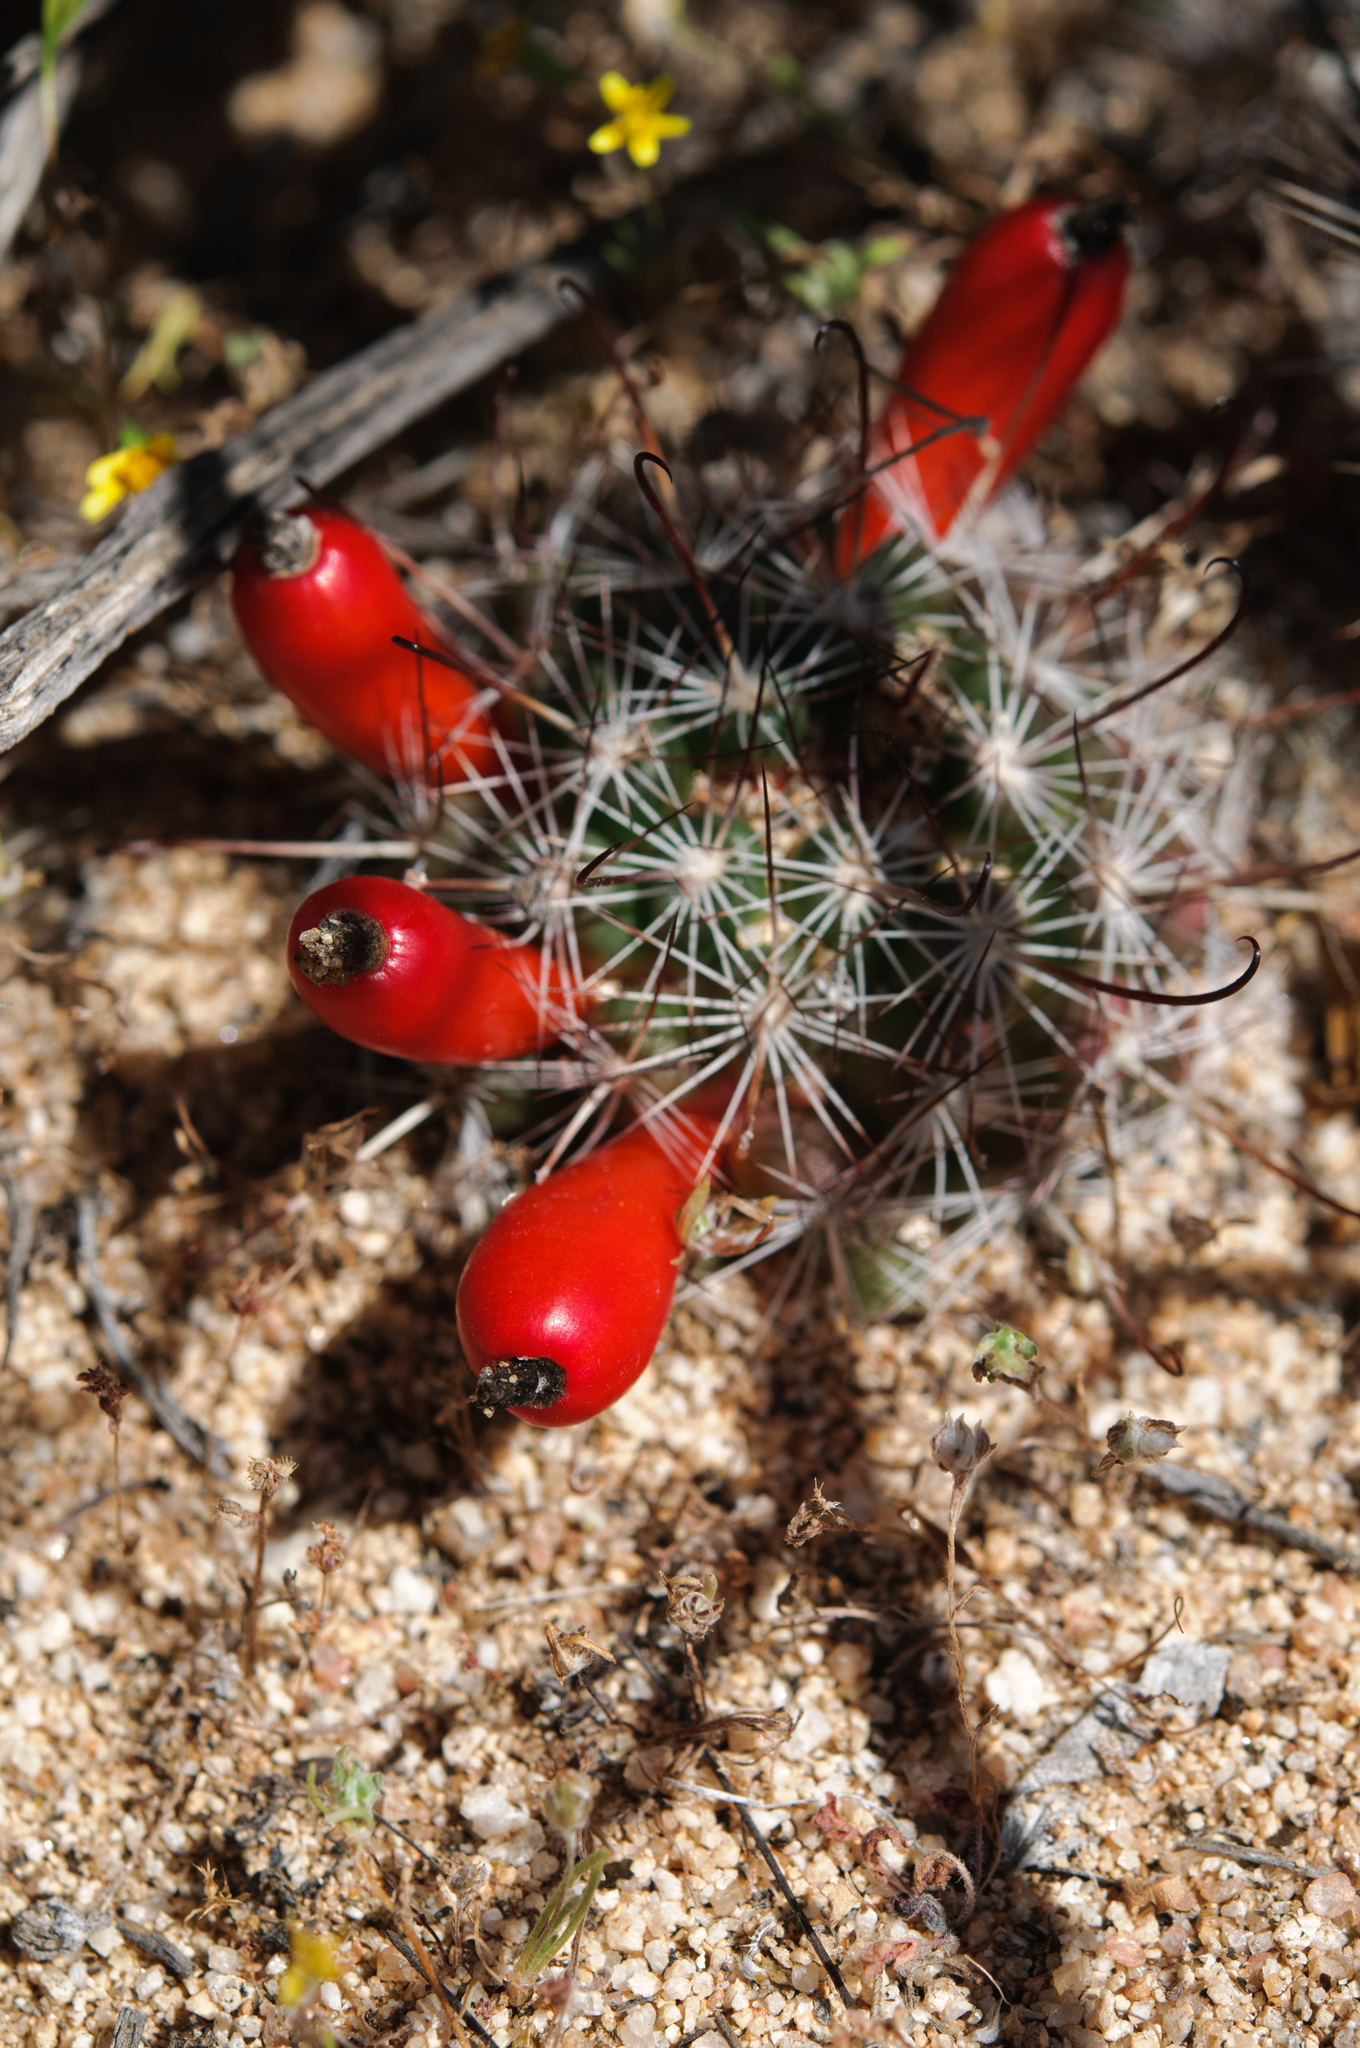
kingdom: Plantae
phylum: Tracheophyta
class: Magnoliopsida
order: Caryophyllales
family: Cactaceae
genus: Cochemiea
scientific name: Cochemiea dioica
